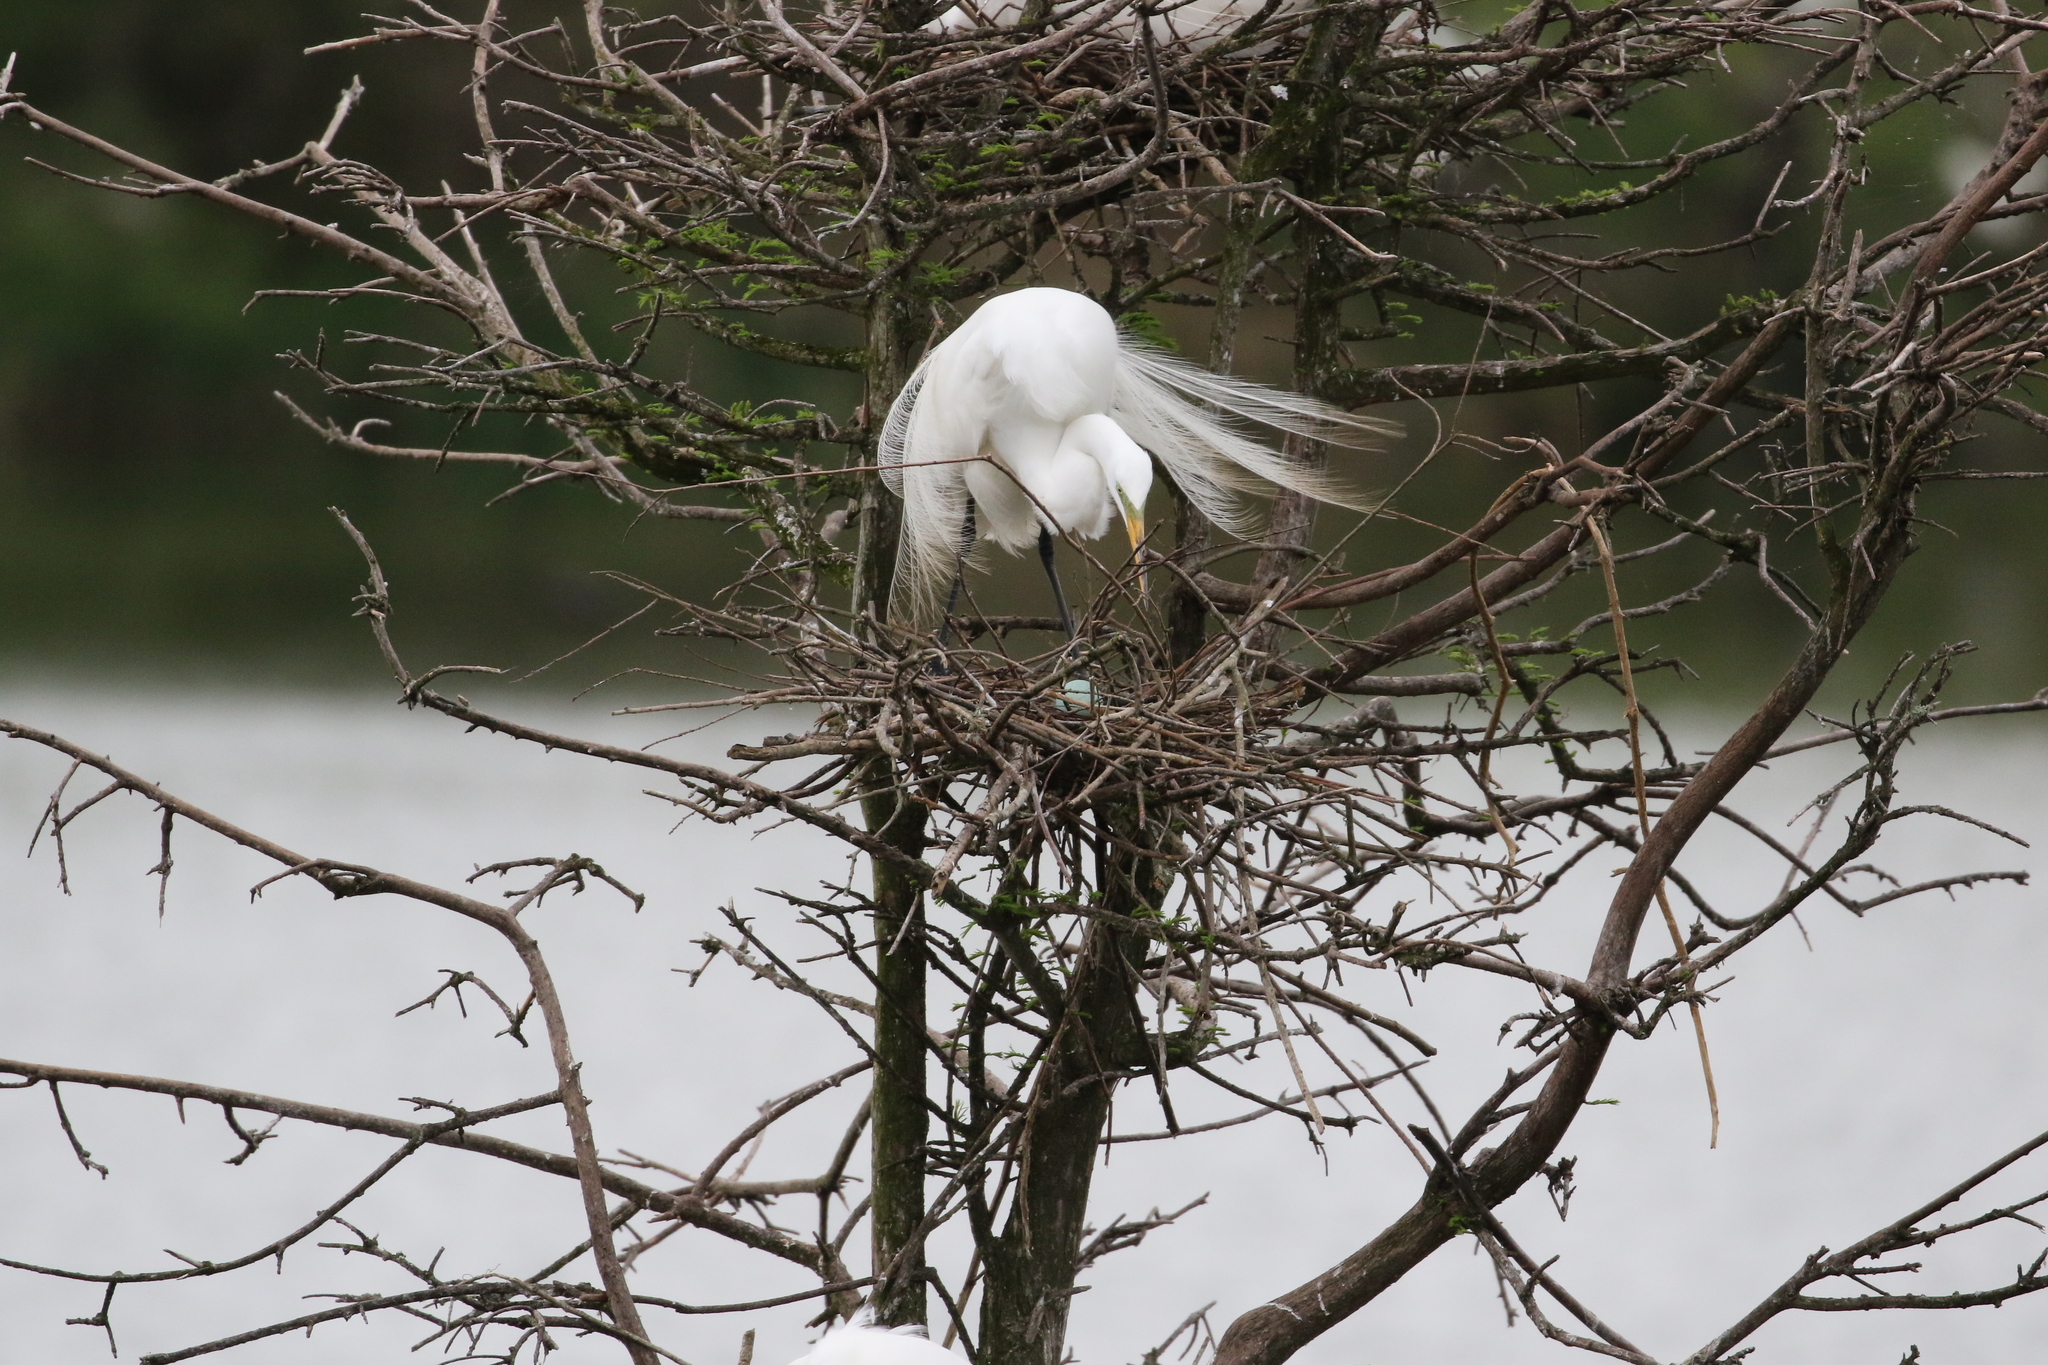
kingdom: Animalia
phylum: Chordata
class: Aves
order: Pelecaniformes
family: Ardeidae
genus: Ardea
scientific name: Ardea alba
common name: Great egret
